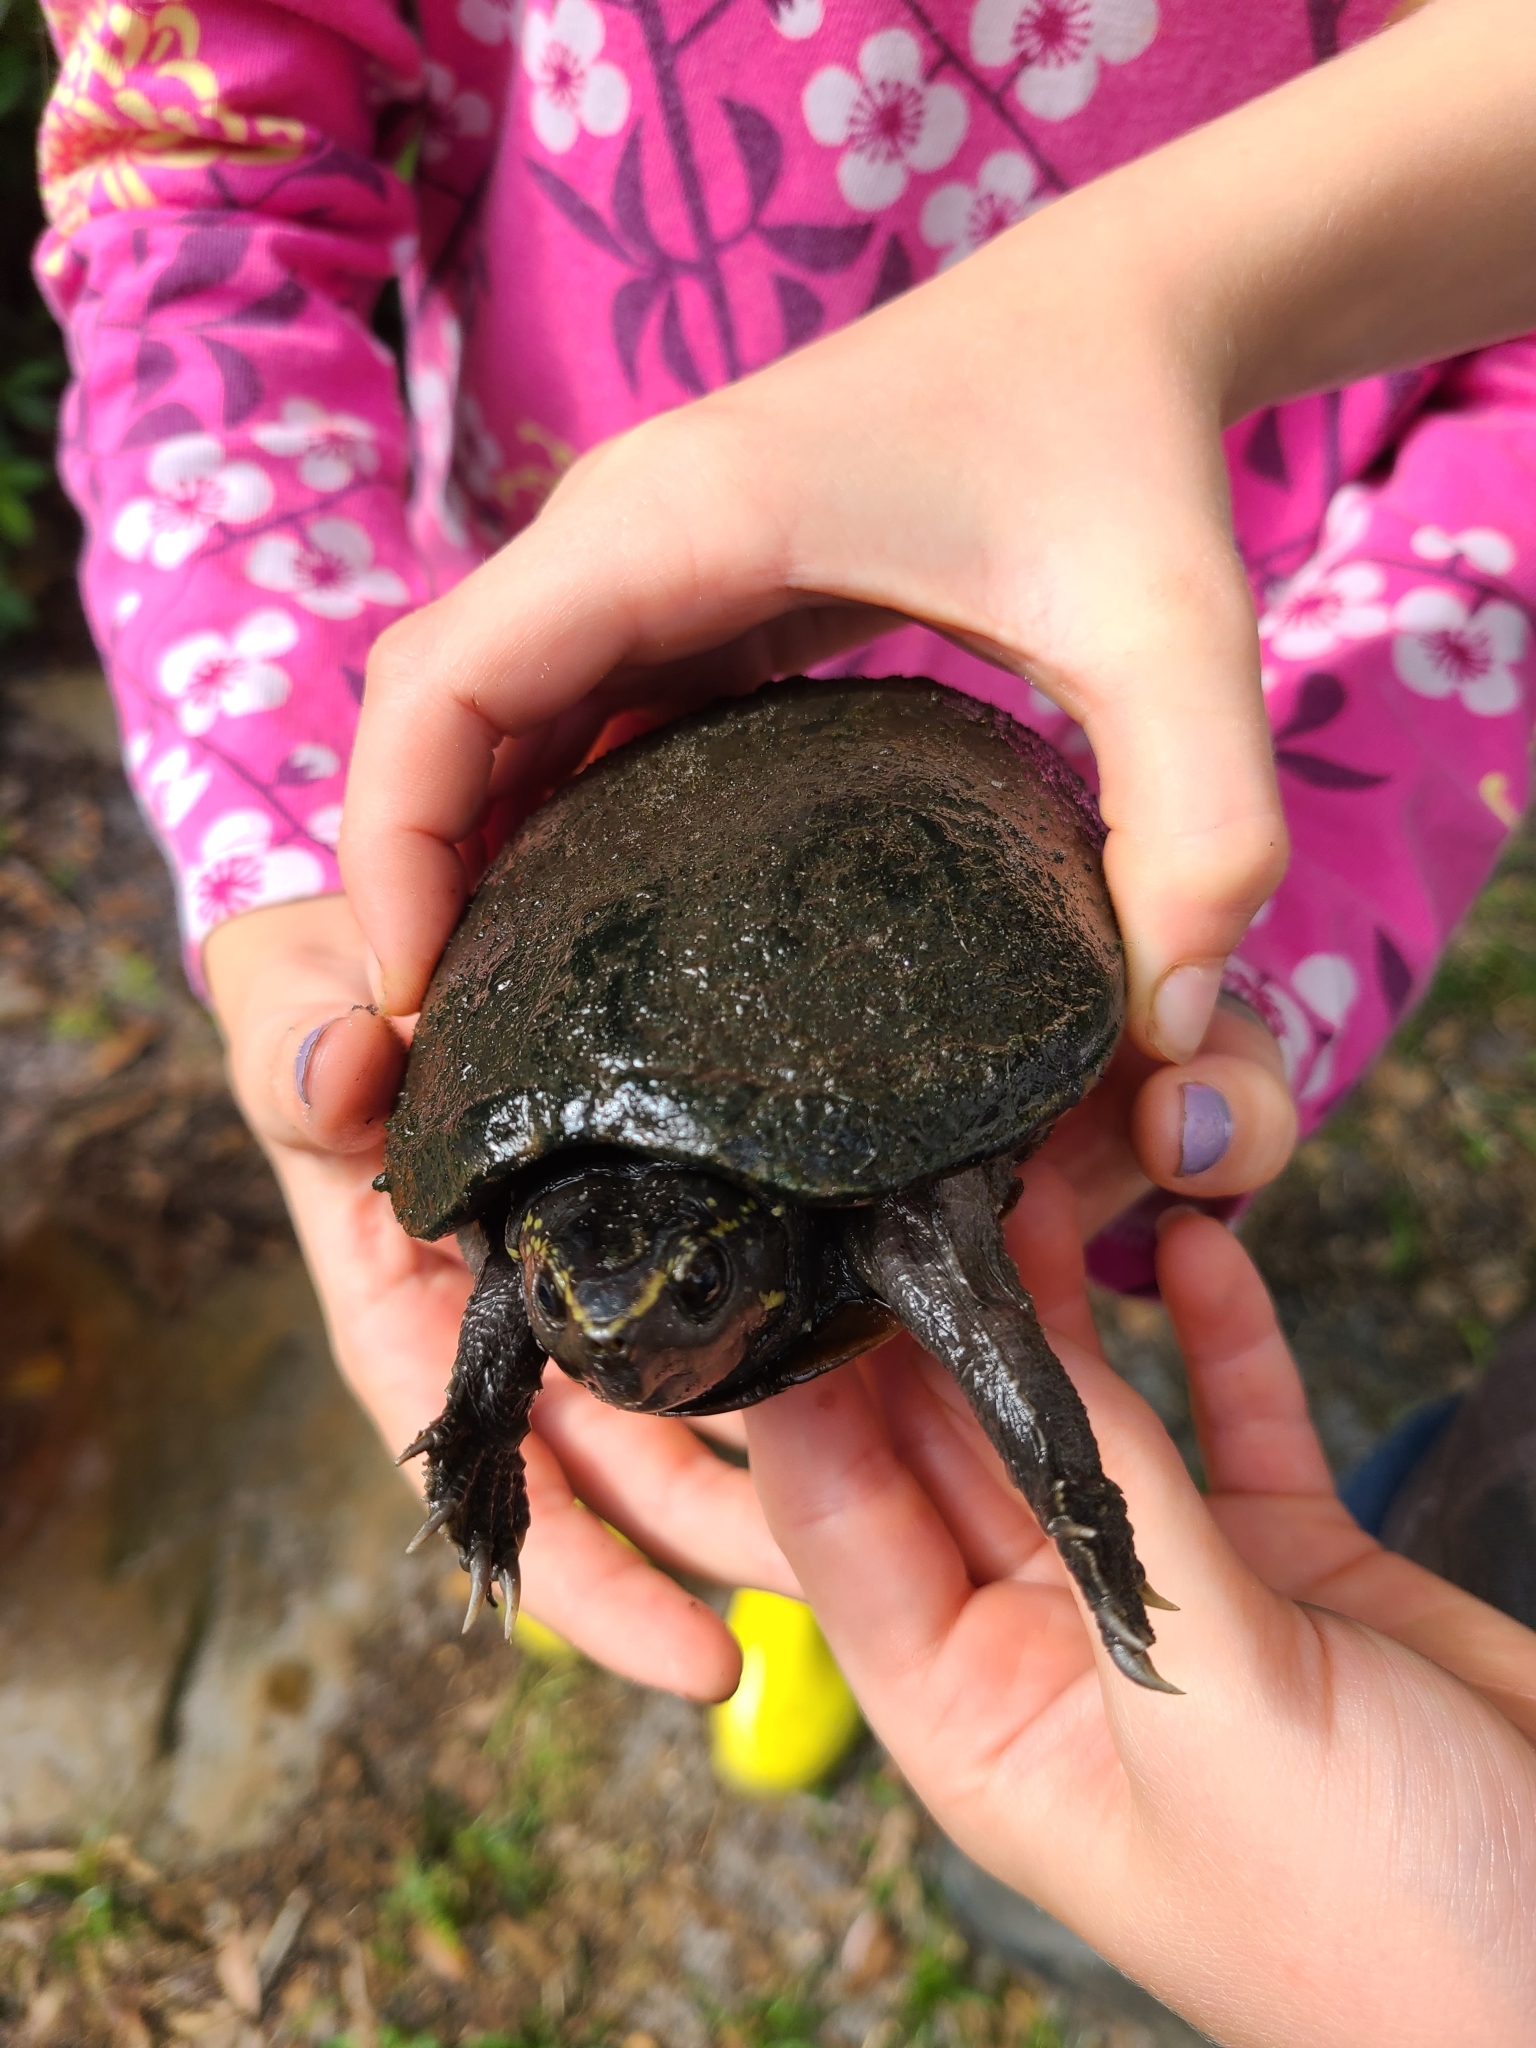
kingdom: Animalia
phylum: Chordata
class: Testudines
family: Kinosternidae
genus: Kinosternon
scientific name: Kinosternon baurii
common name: Striped mud turtle
